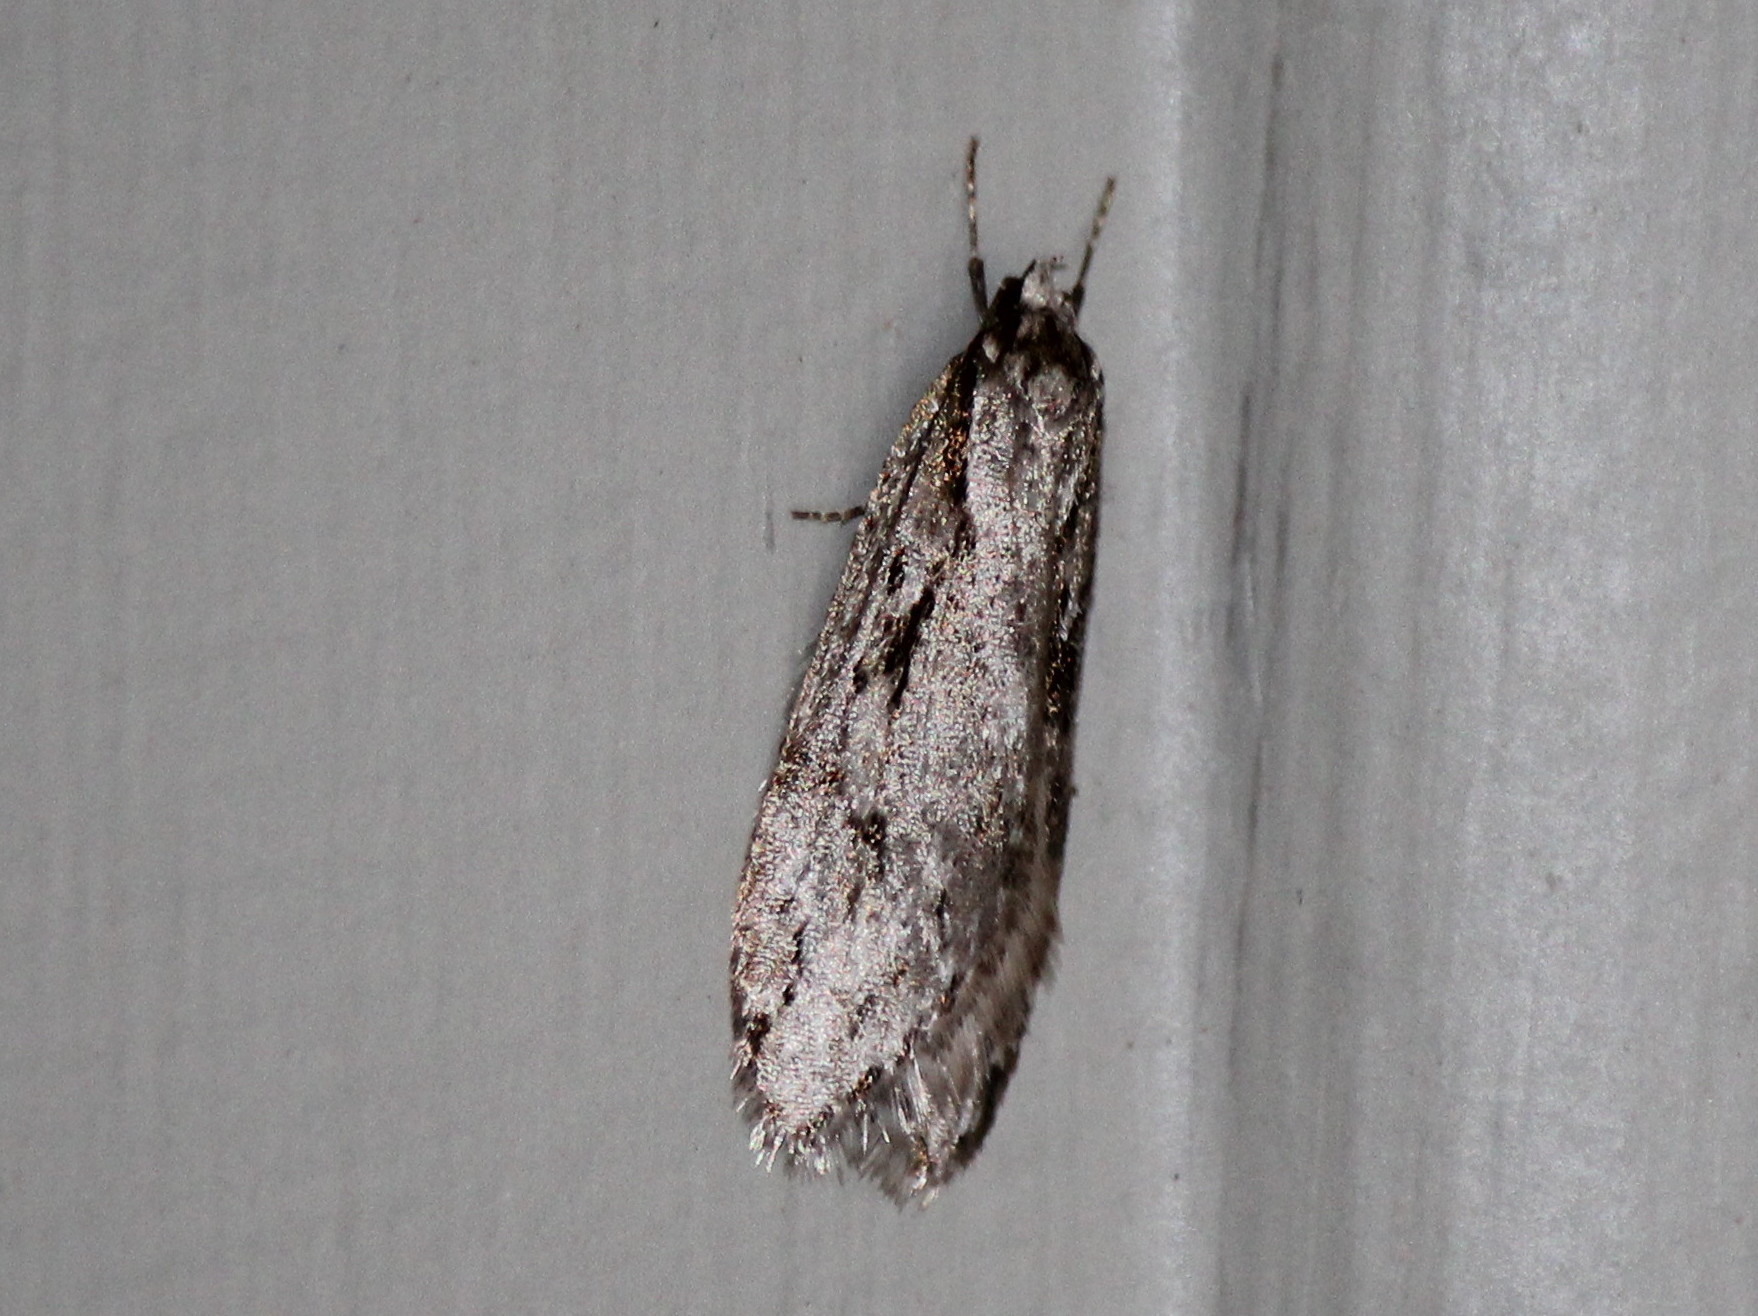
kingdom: Animalia
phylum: Arthropoda
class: Insecta
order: Lepidoptera
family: Depressariidae
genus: Semioscopis
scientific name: Semioscopis aurorella
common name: Aurora flatbody moth
